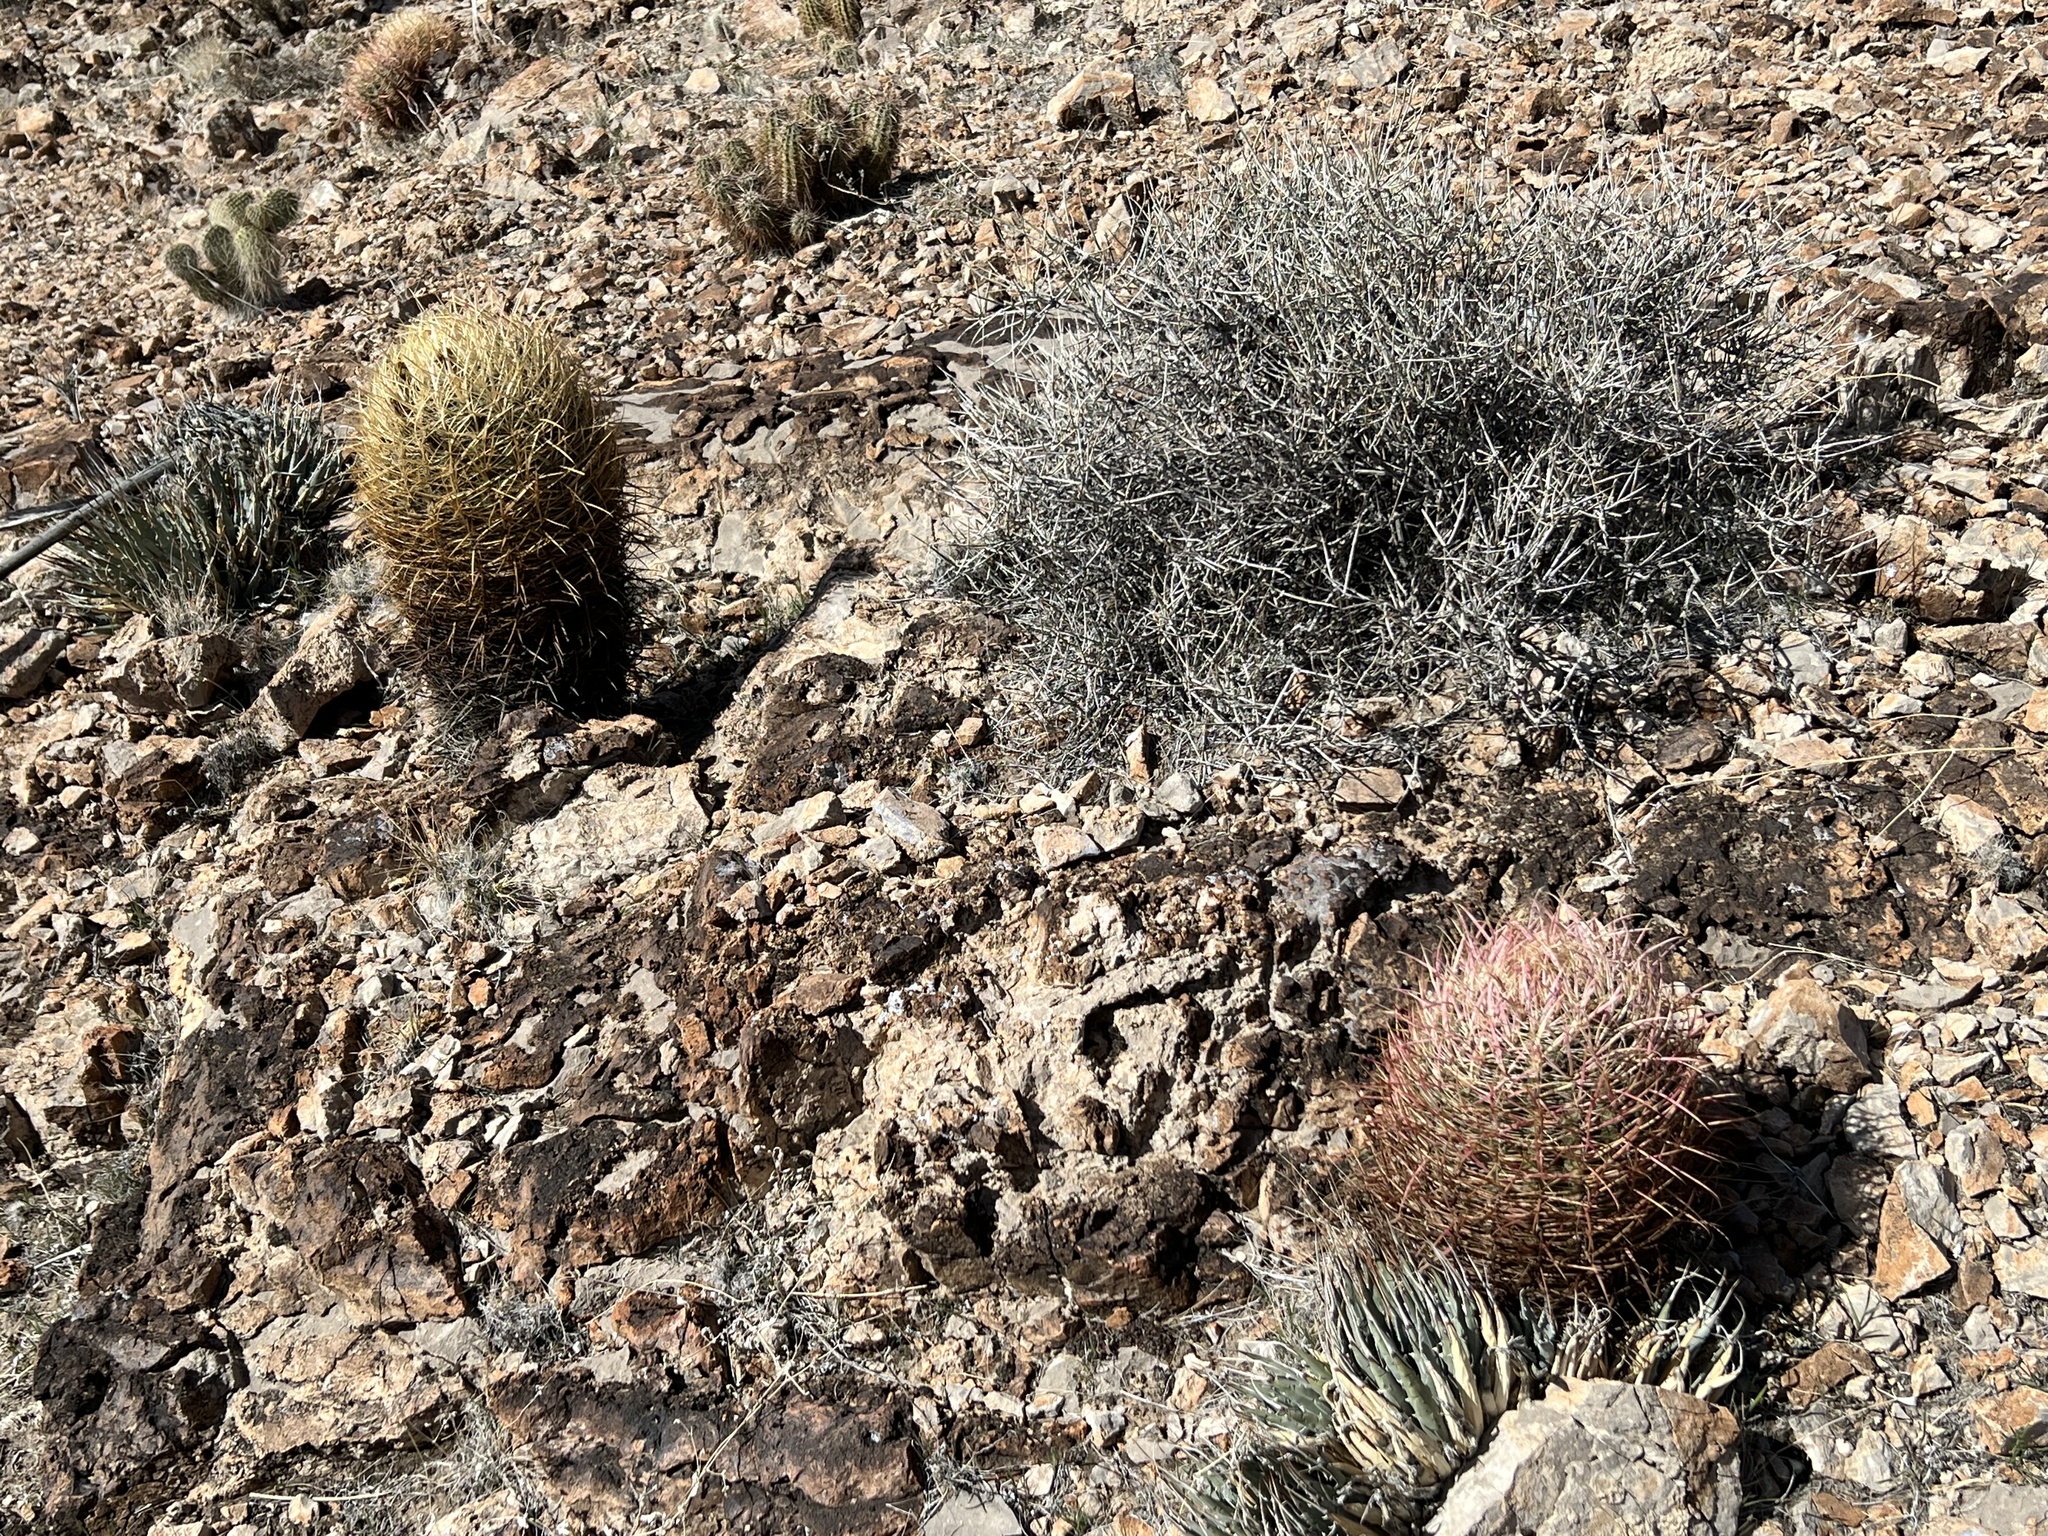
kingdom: Plantae
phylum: Tracheophyta
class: Magnoliopsida
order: Caryophyllales
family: Cactaceae
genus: Ferocactus
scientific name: Ferocactus cylindraceus
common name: California barrel cactus
